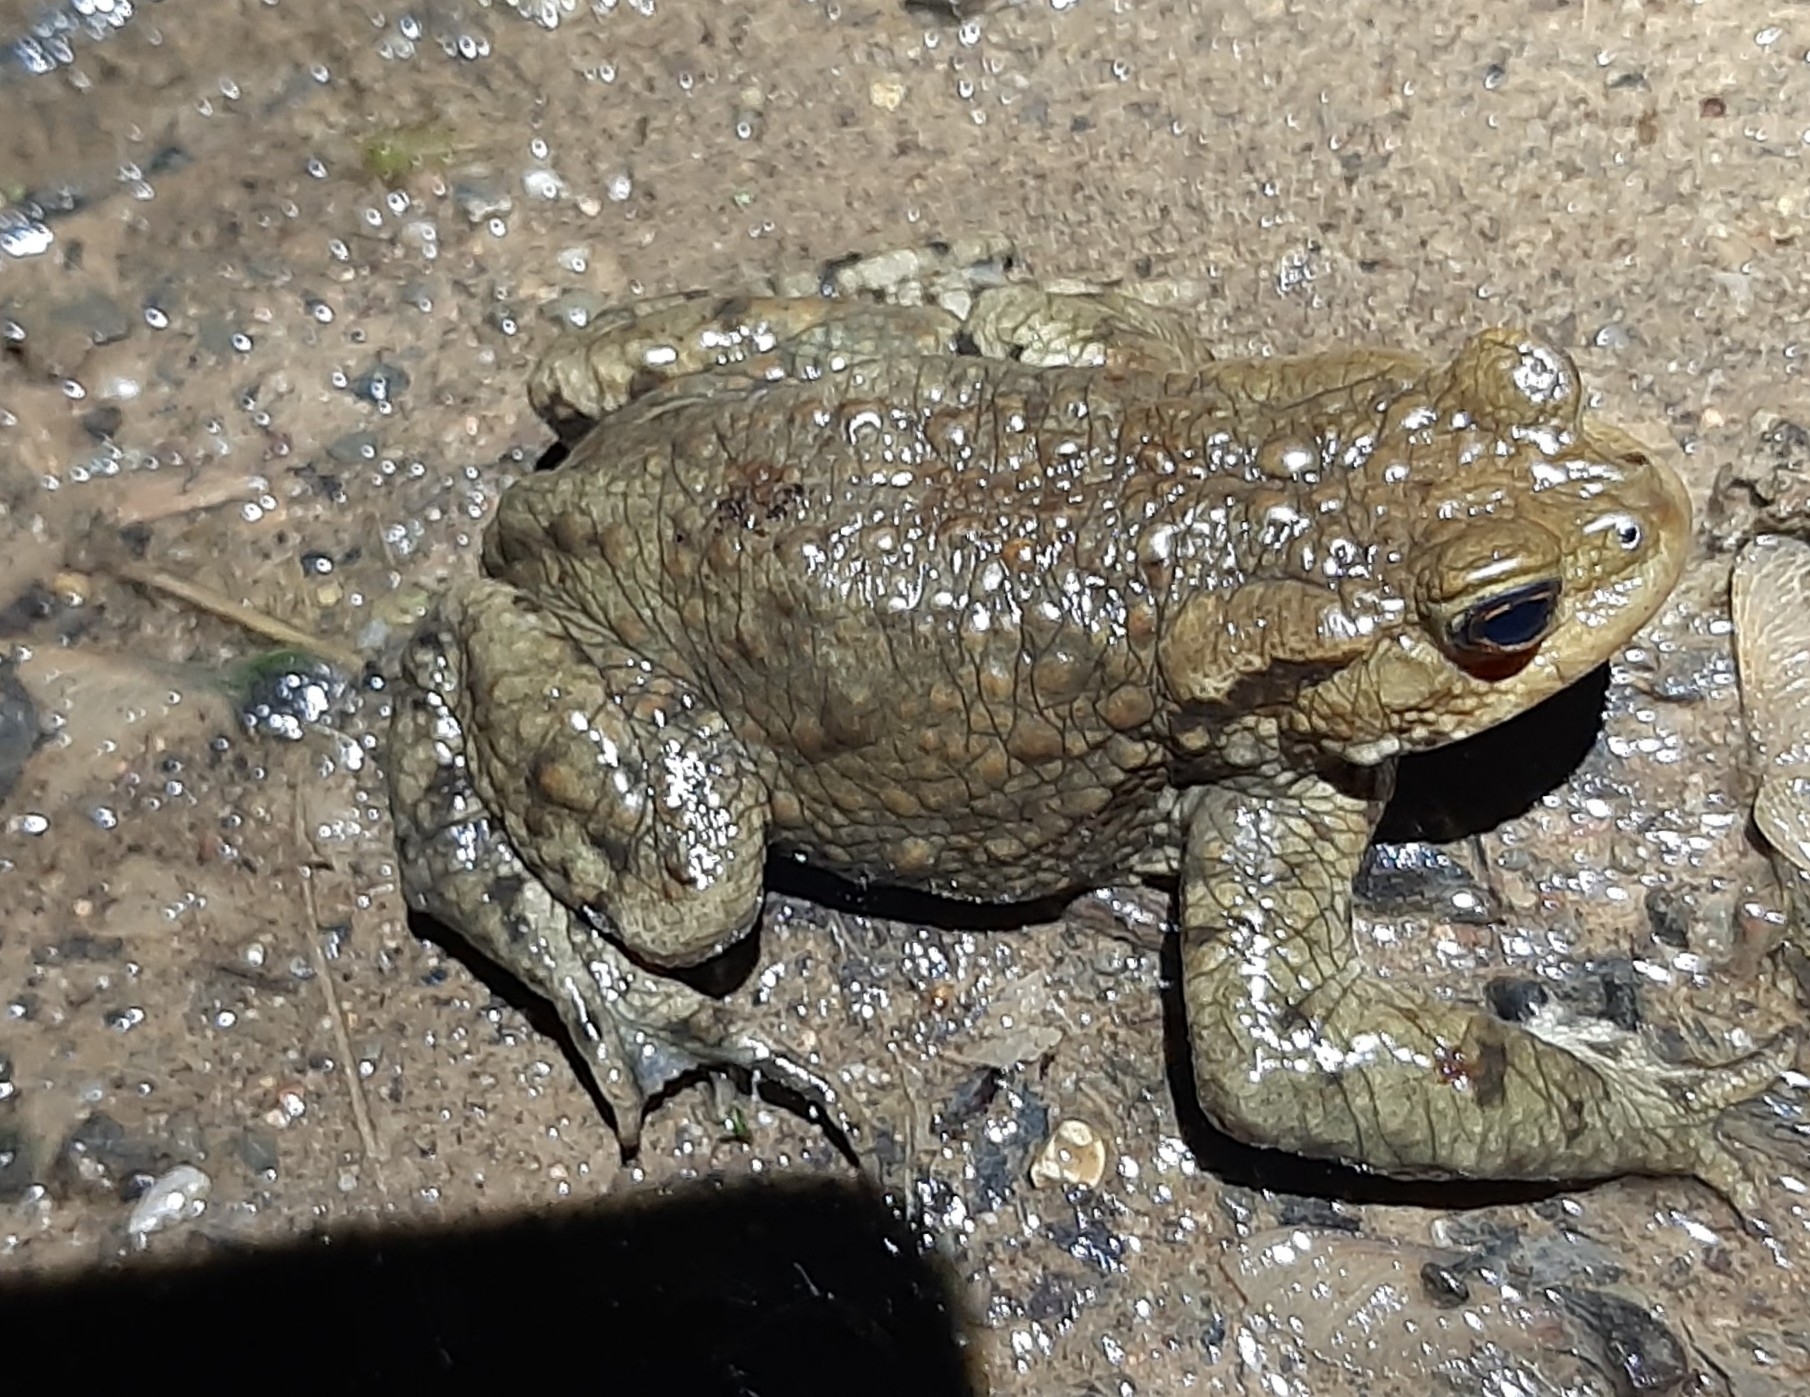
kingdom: Animalia
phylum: Chordata
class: Amphibia
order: Anura
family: Bufonidae
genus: Bufo
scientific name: Bufo bufo
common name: Common toad
